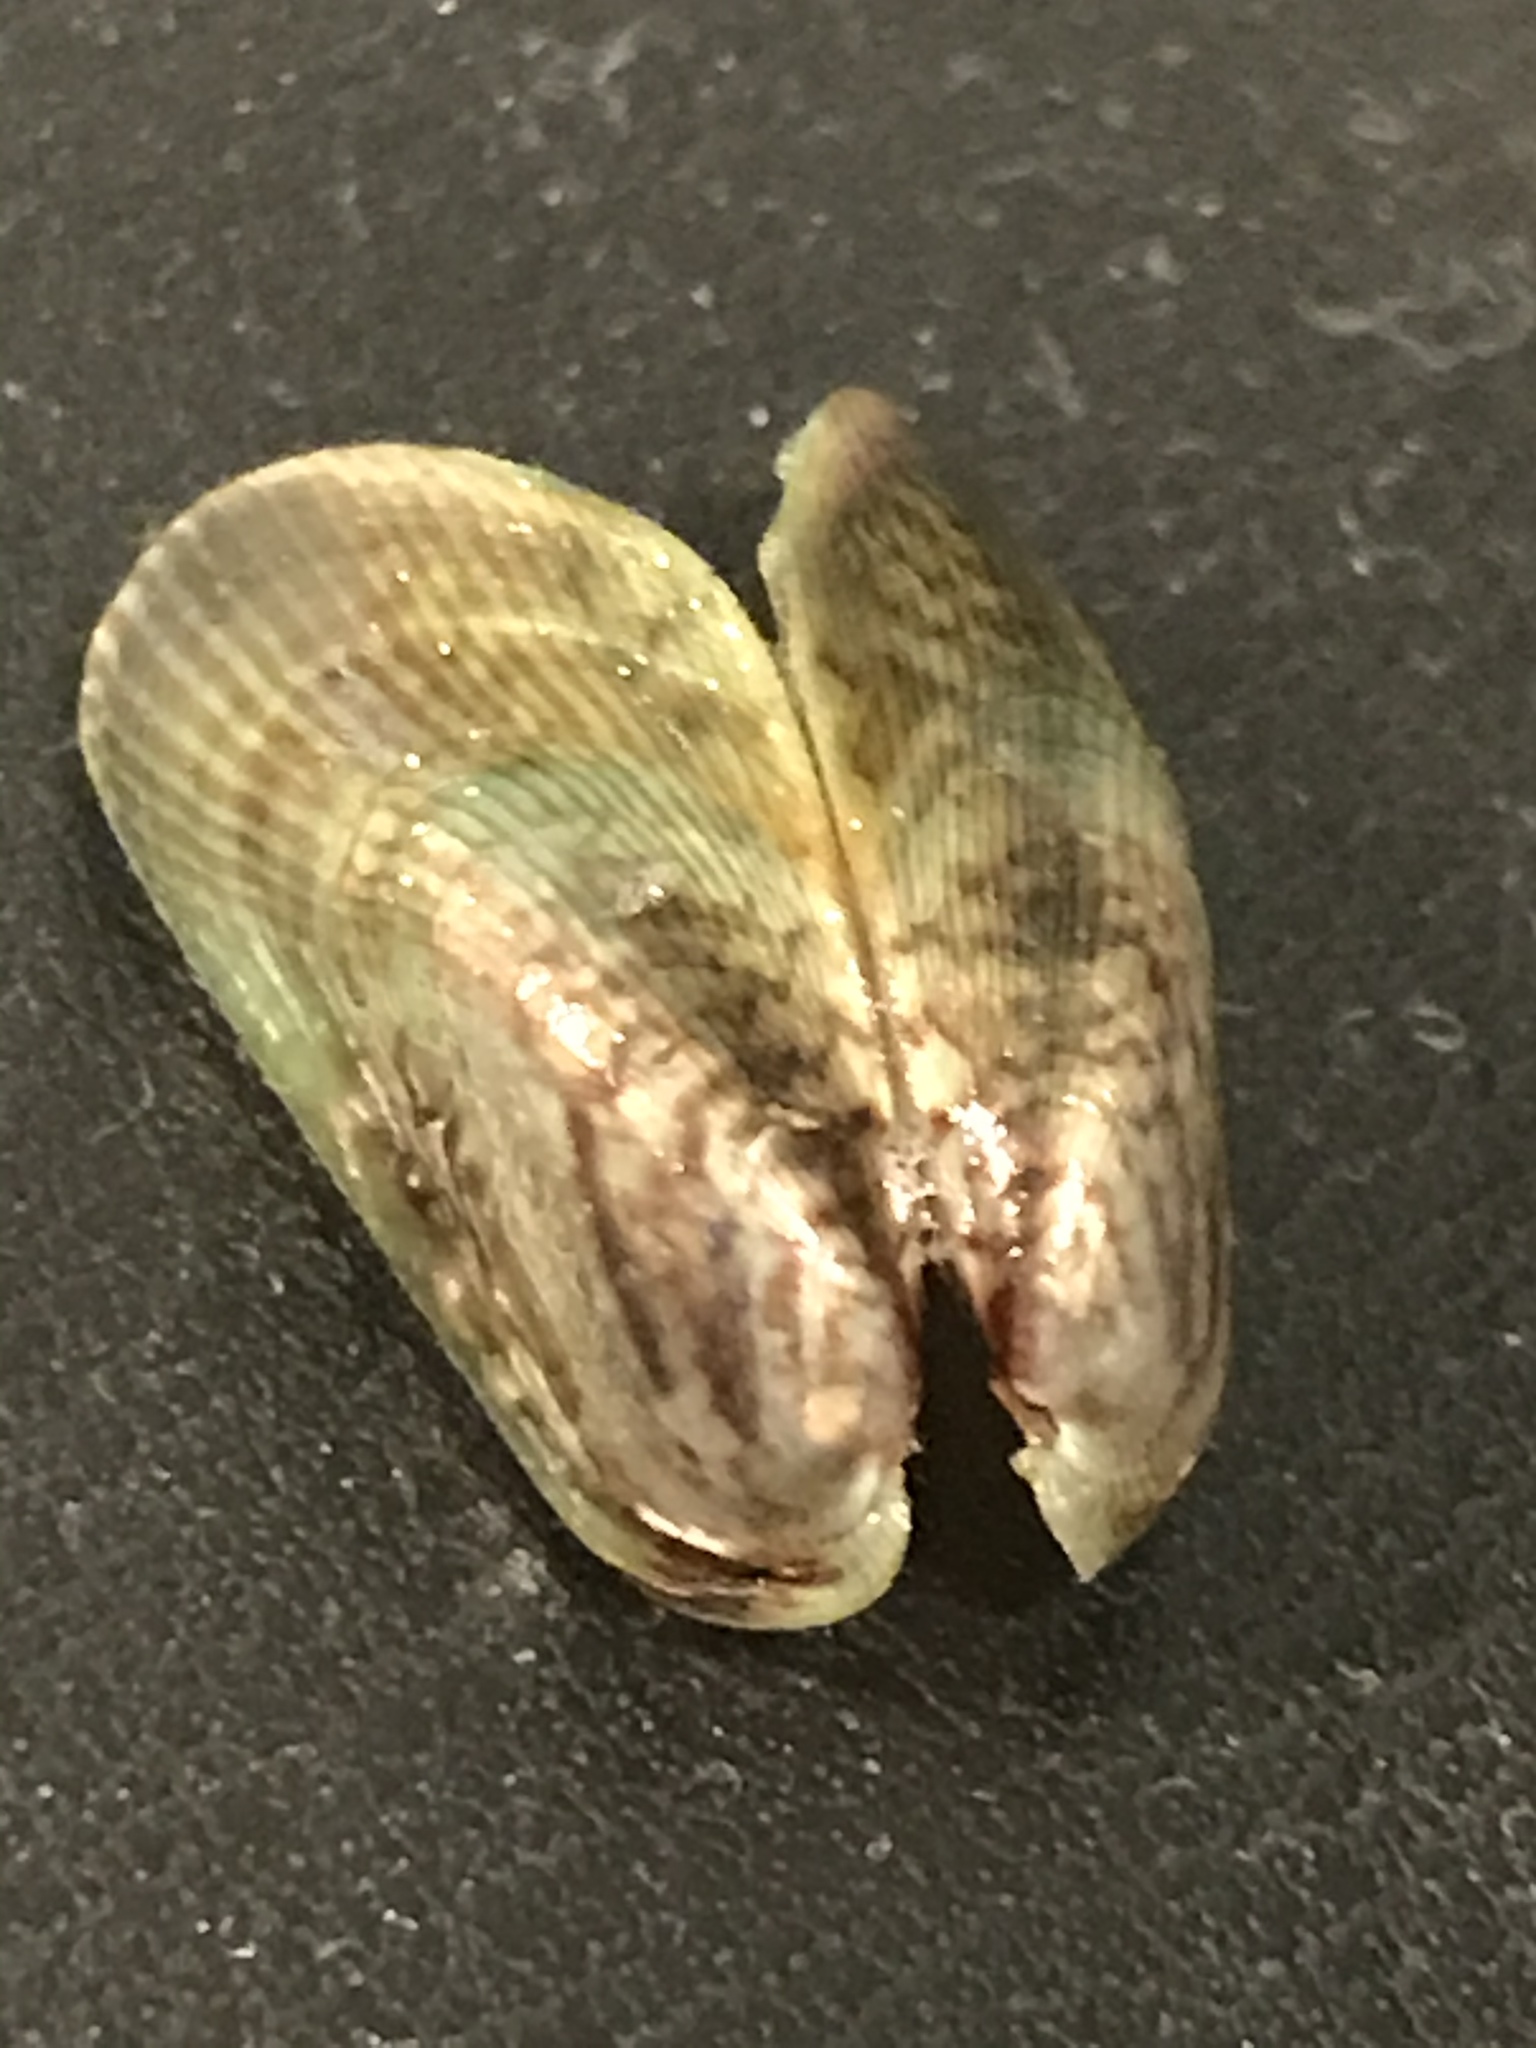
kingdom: Animalia
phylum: Mollusca
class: Bivalvia
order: Mytilida
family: Mytilidae
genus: Arcuatula
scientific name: Arcuatula senhousia
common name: Asian mussel
